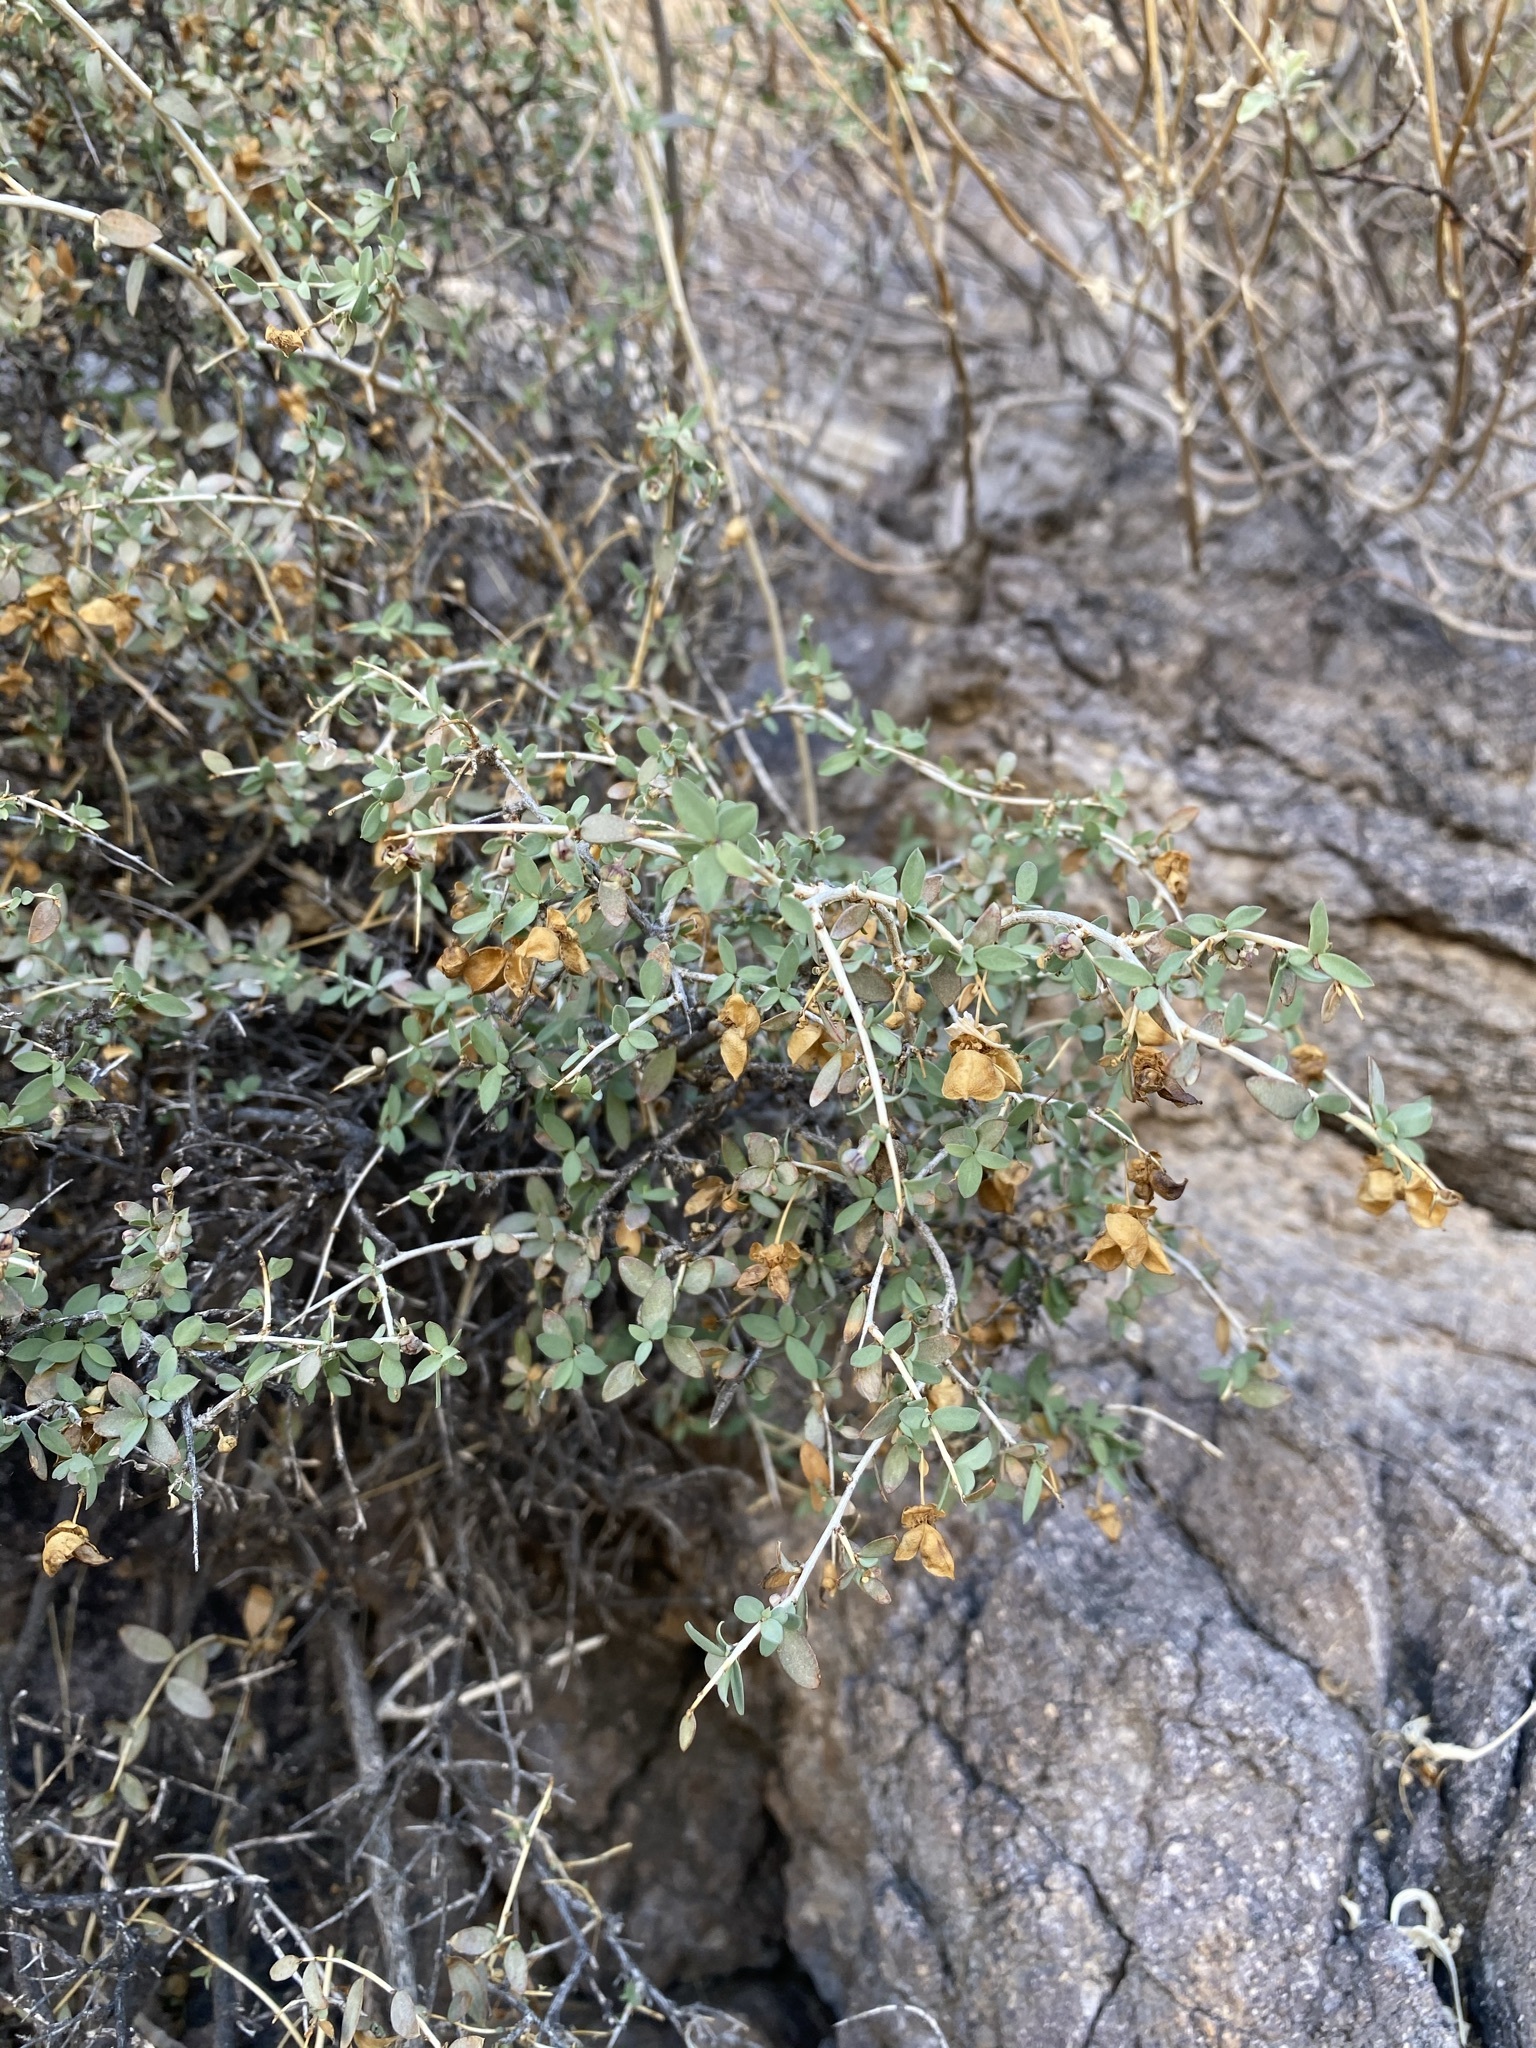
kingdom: Plantae
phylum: Tracheophyta
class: Magnoliopsida
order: Crossosomatales
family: Crossosomataceae
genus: Crossosoma
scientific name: Crossosoma bigelovii
